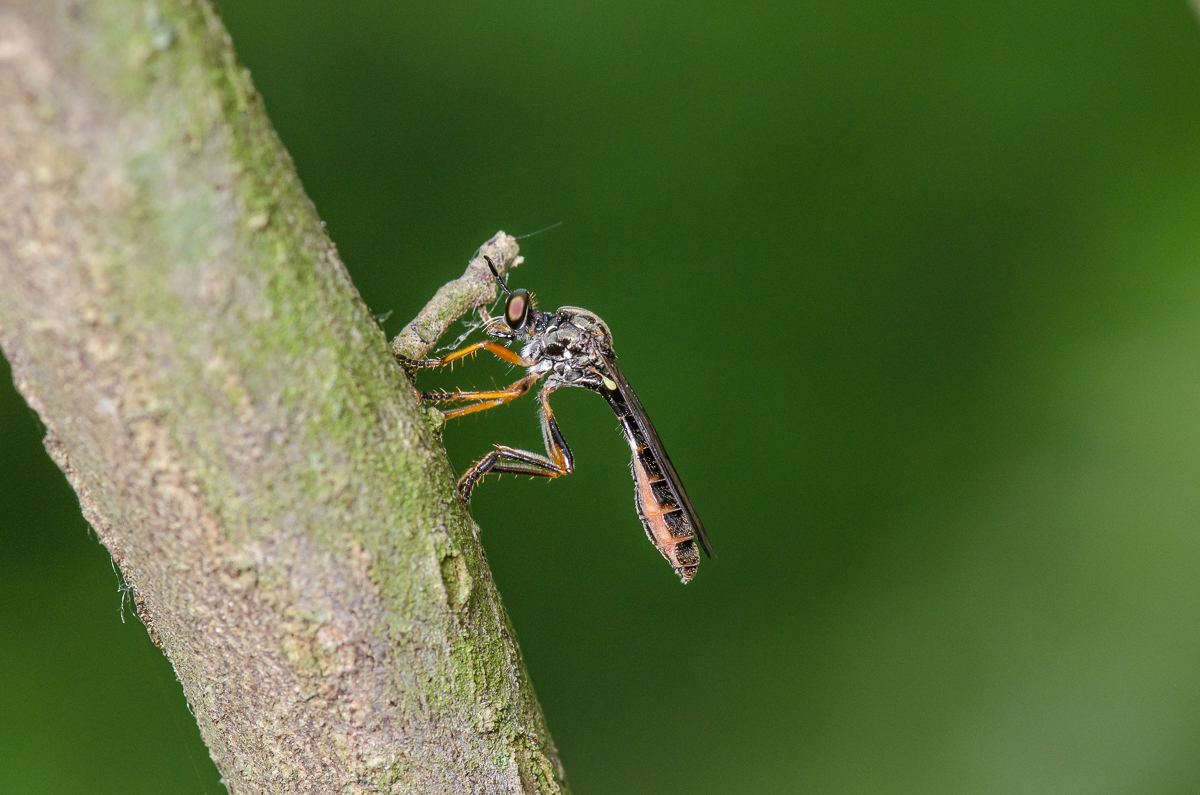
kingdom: Animalia
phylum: Arthropoda
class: Insecta
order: Diptera
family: Asilidae
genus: Dioctria
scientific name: Dioctria hyalipennis
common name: Stripe-legged robberfly
